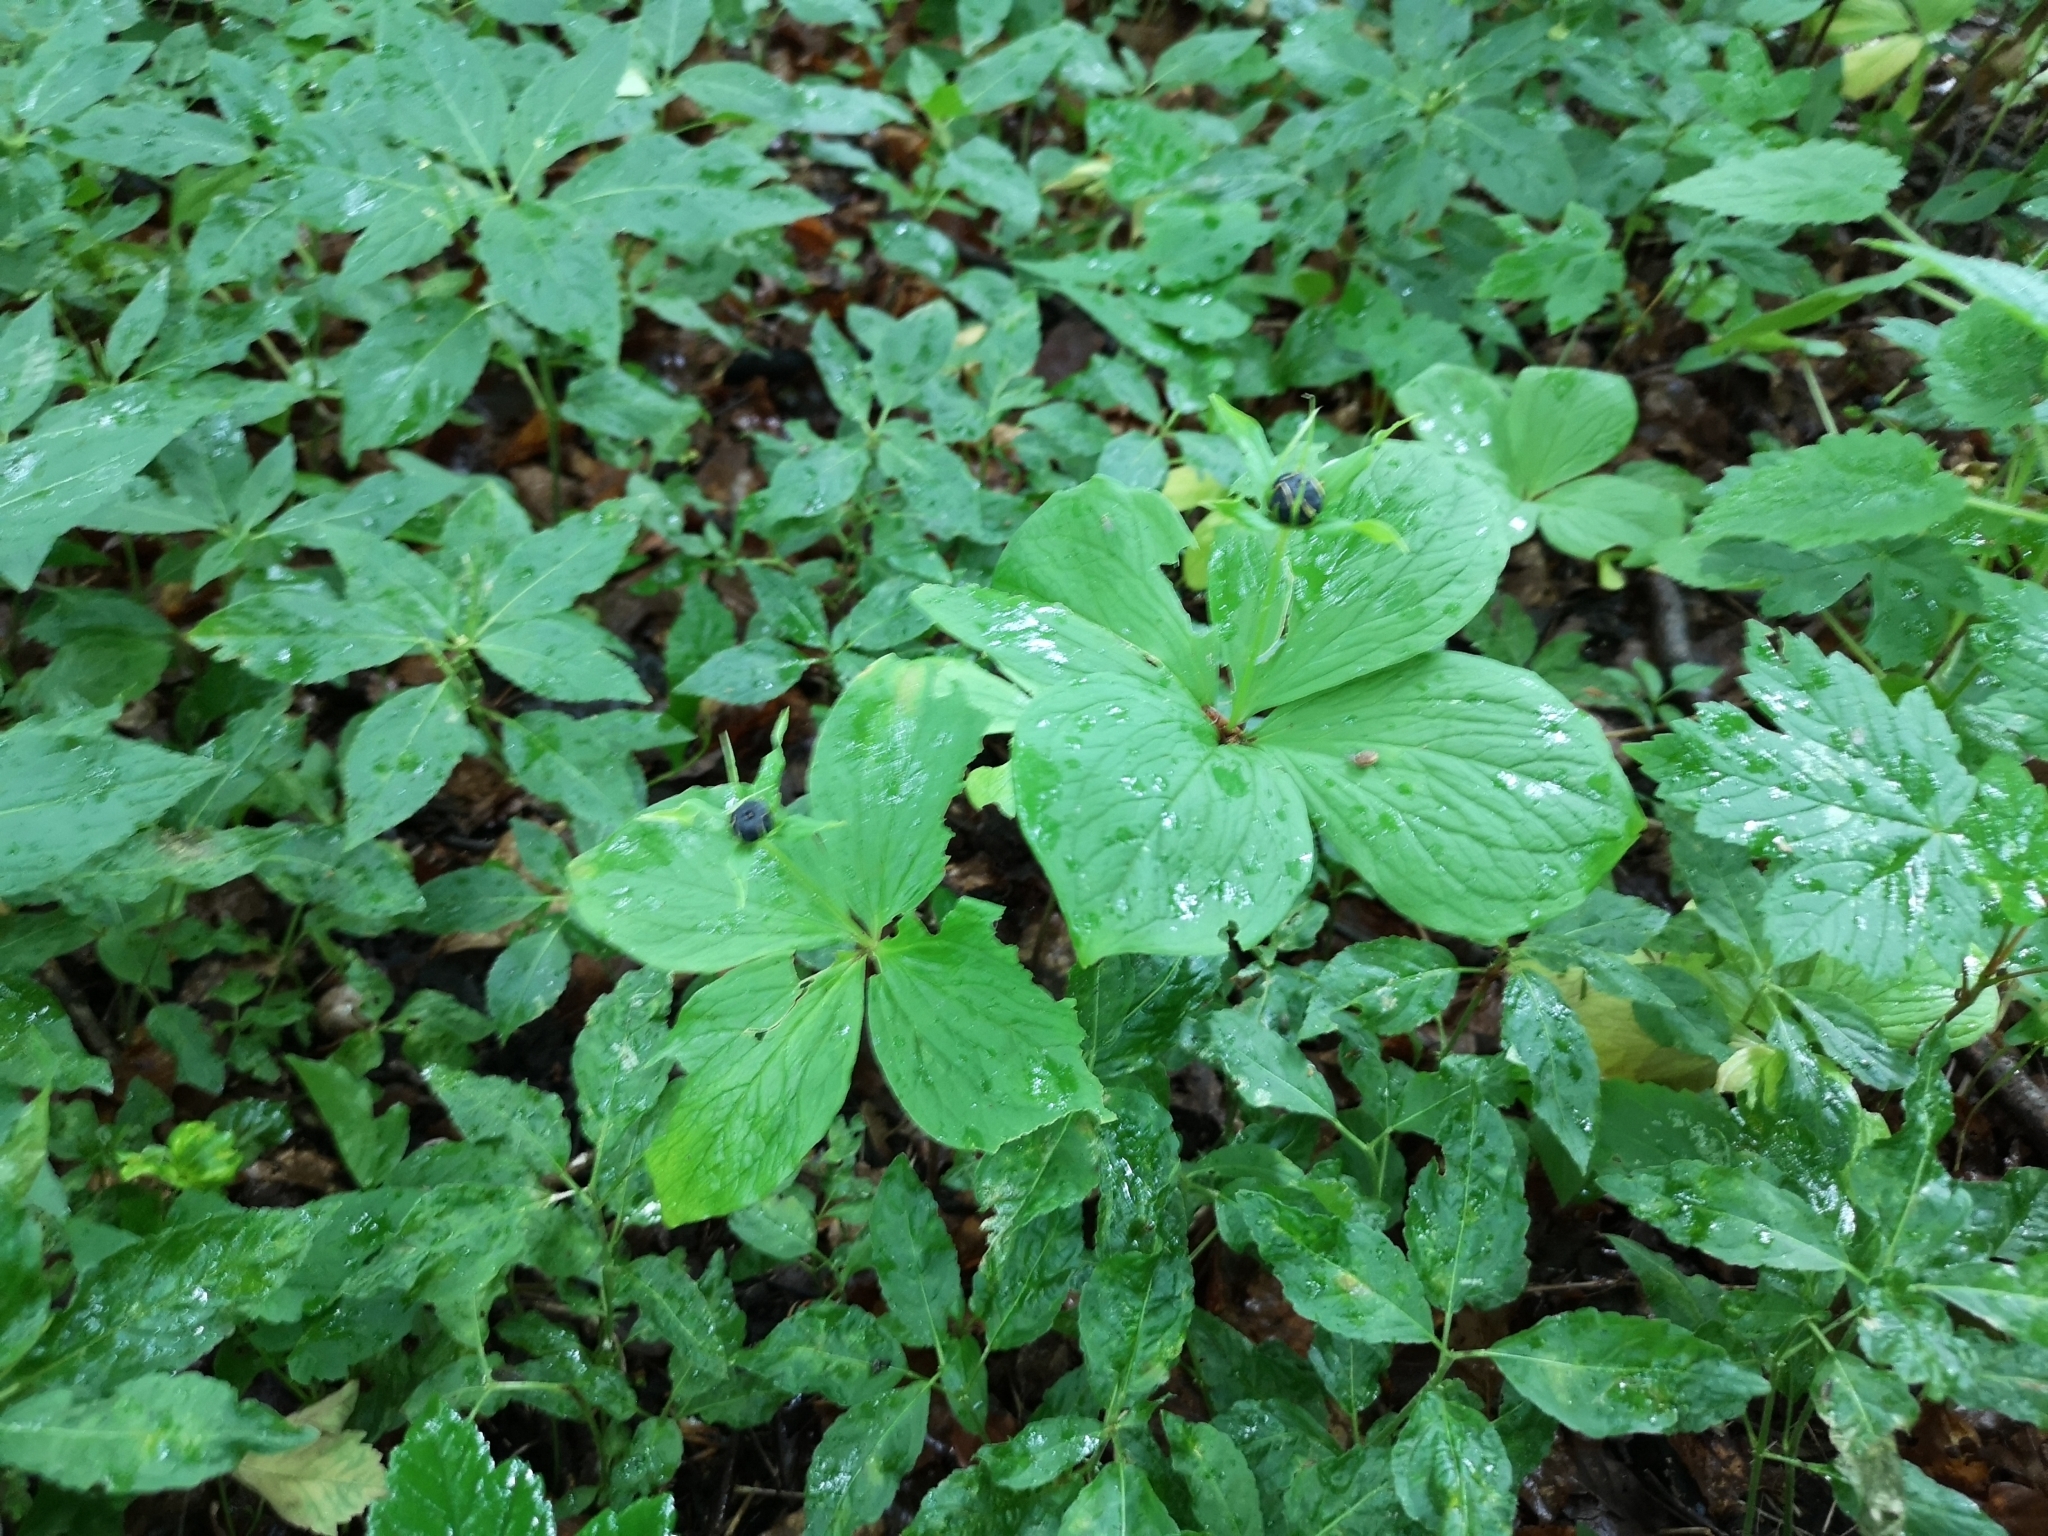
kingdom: Plantae
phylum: Tracheophyta
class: Liliopsida
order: Liliales
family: Melanthiaceae
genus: Paris
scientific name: Paris quadrifolia
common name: Herb-paris
